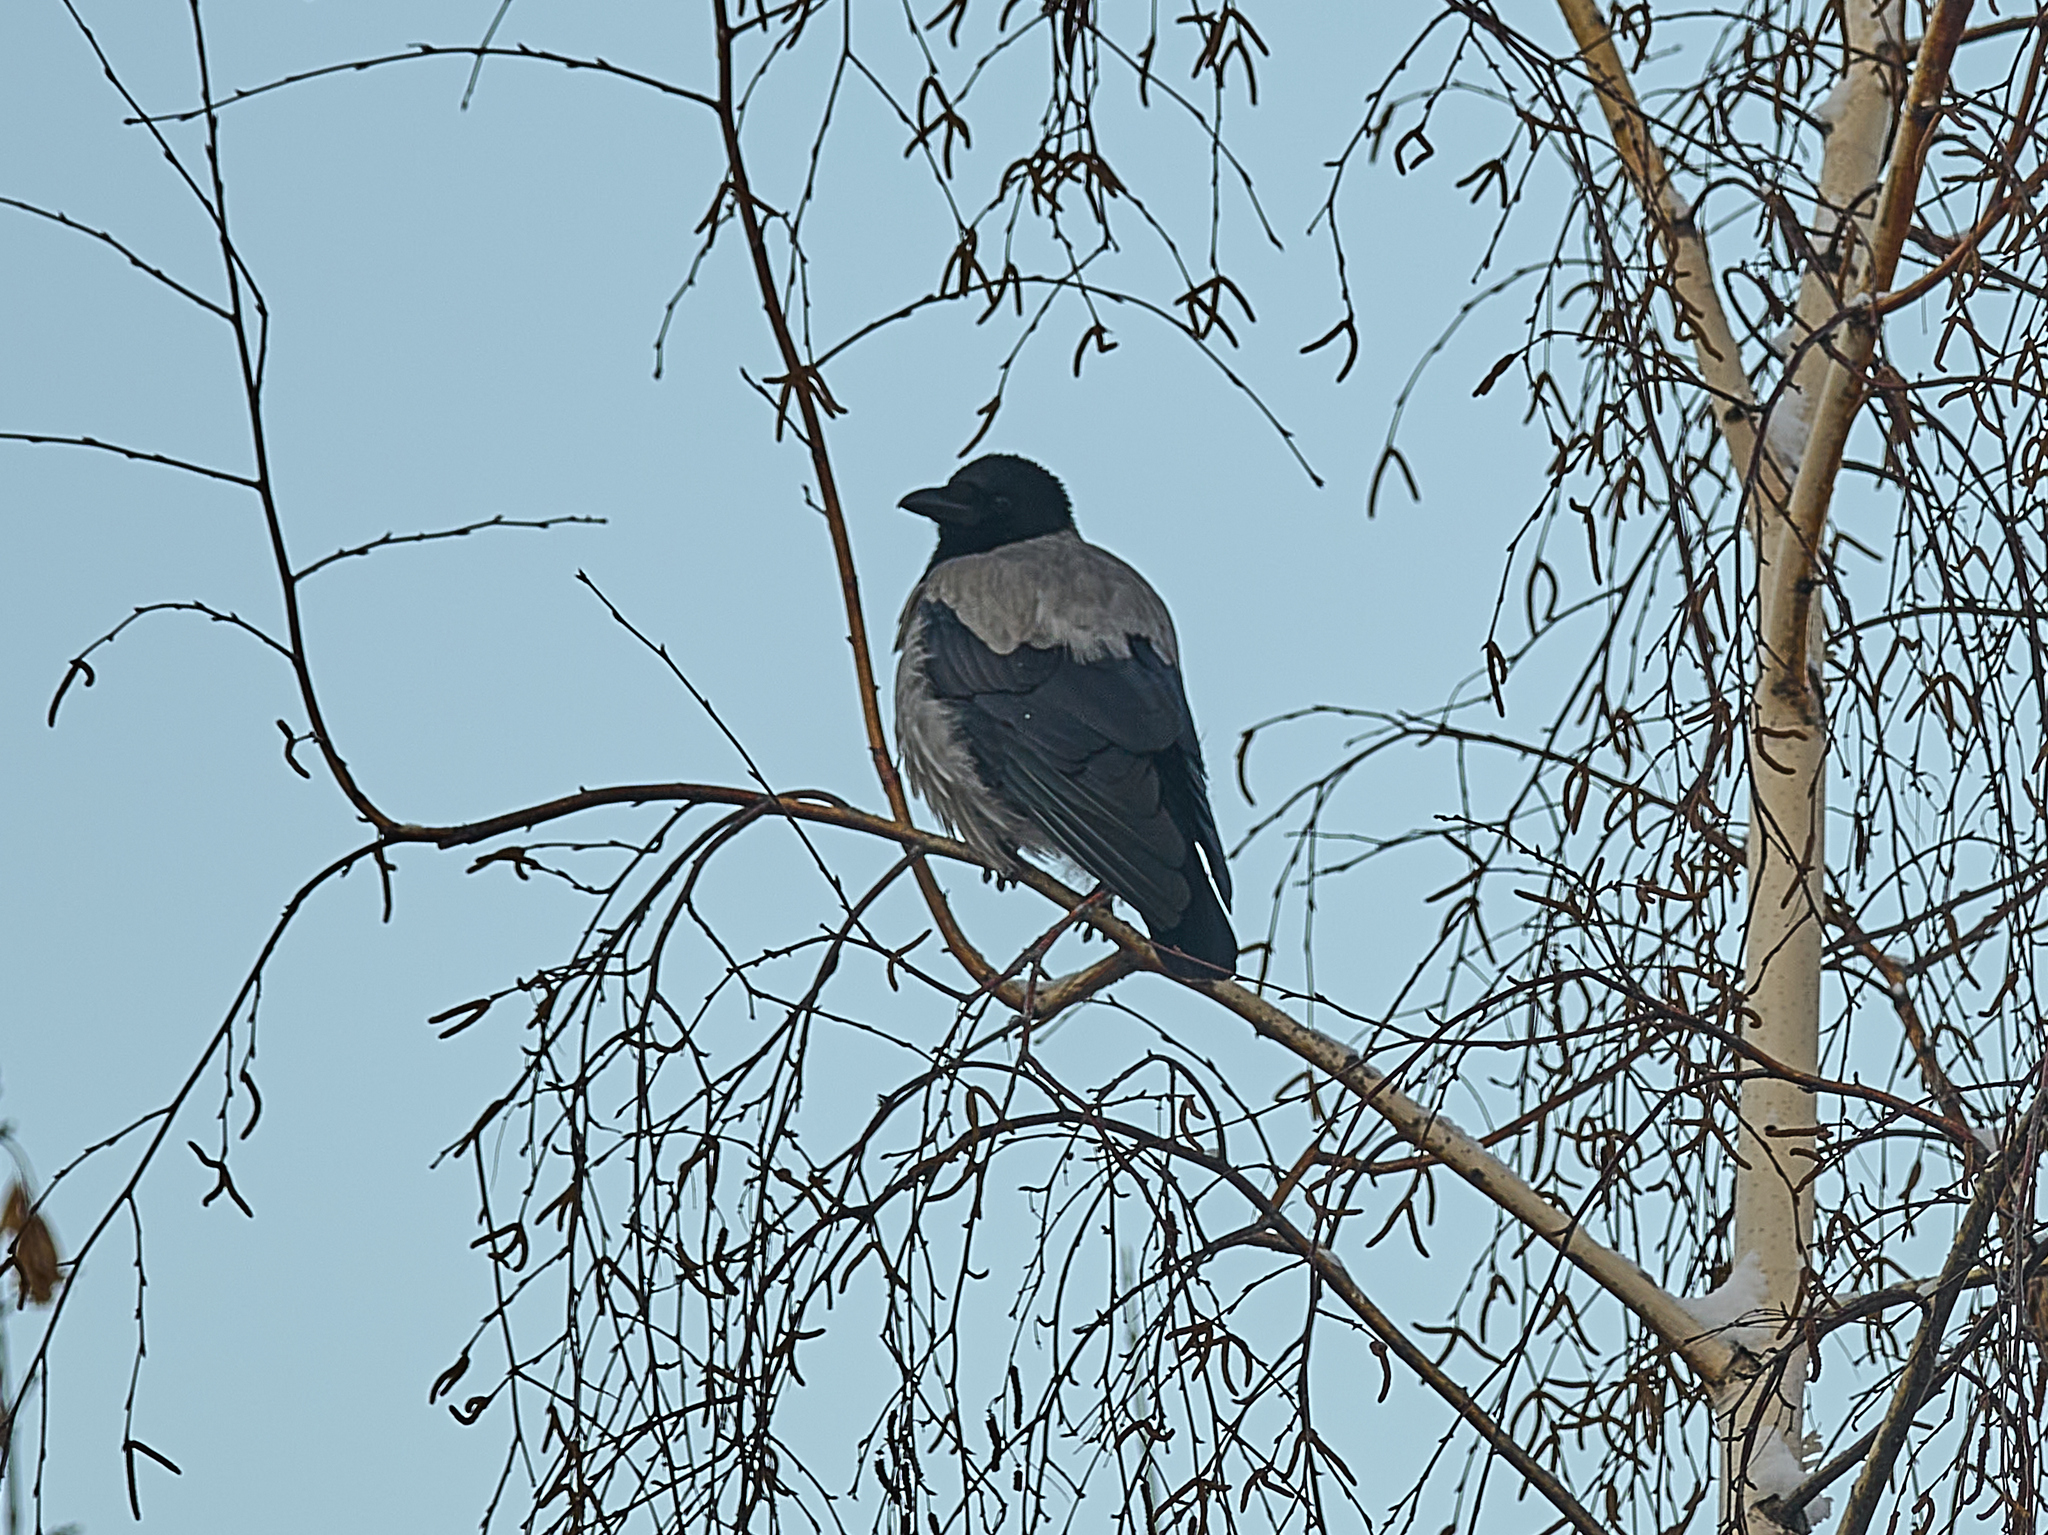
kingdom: Animalia
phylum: Chordata
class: Aves
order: Passeriformes
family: Corvidae
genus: Corvus
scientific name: Corvus cornix
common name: Hooded crow
